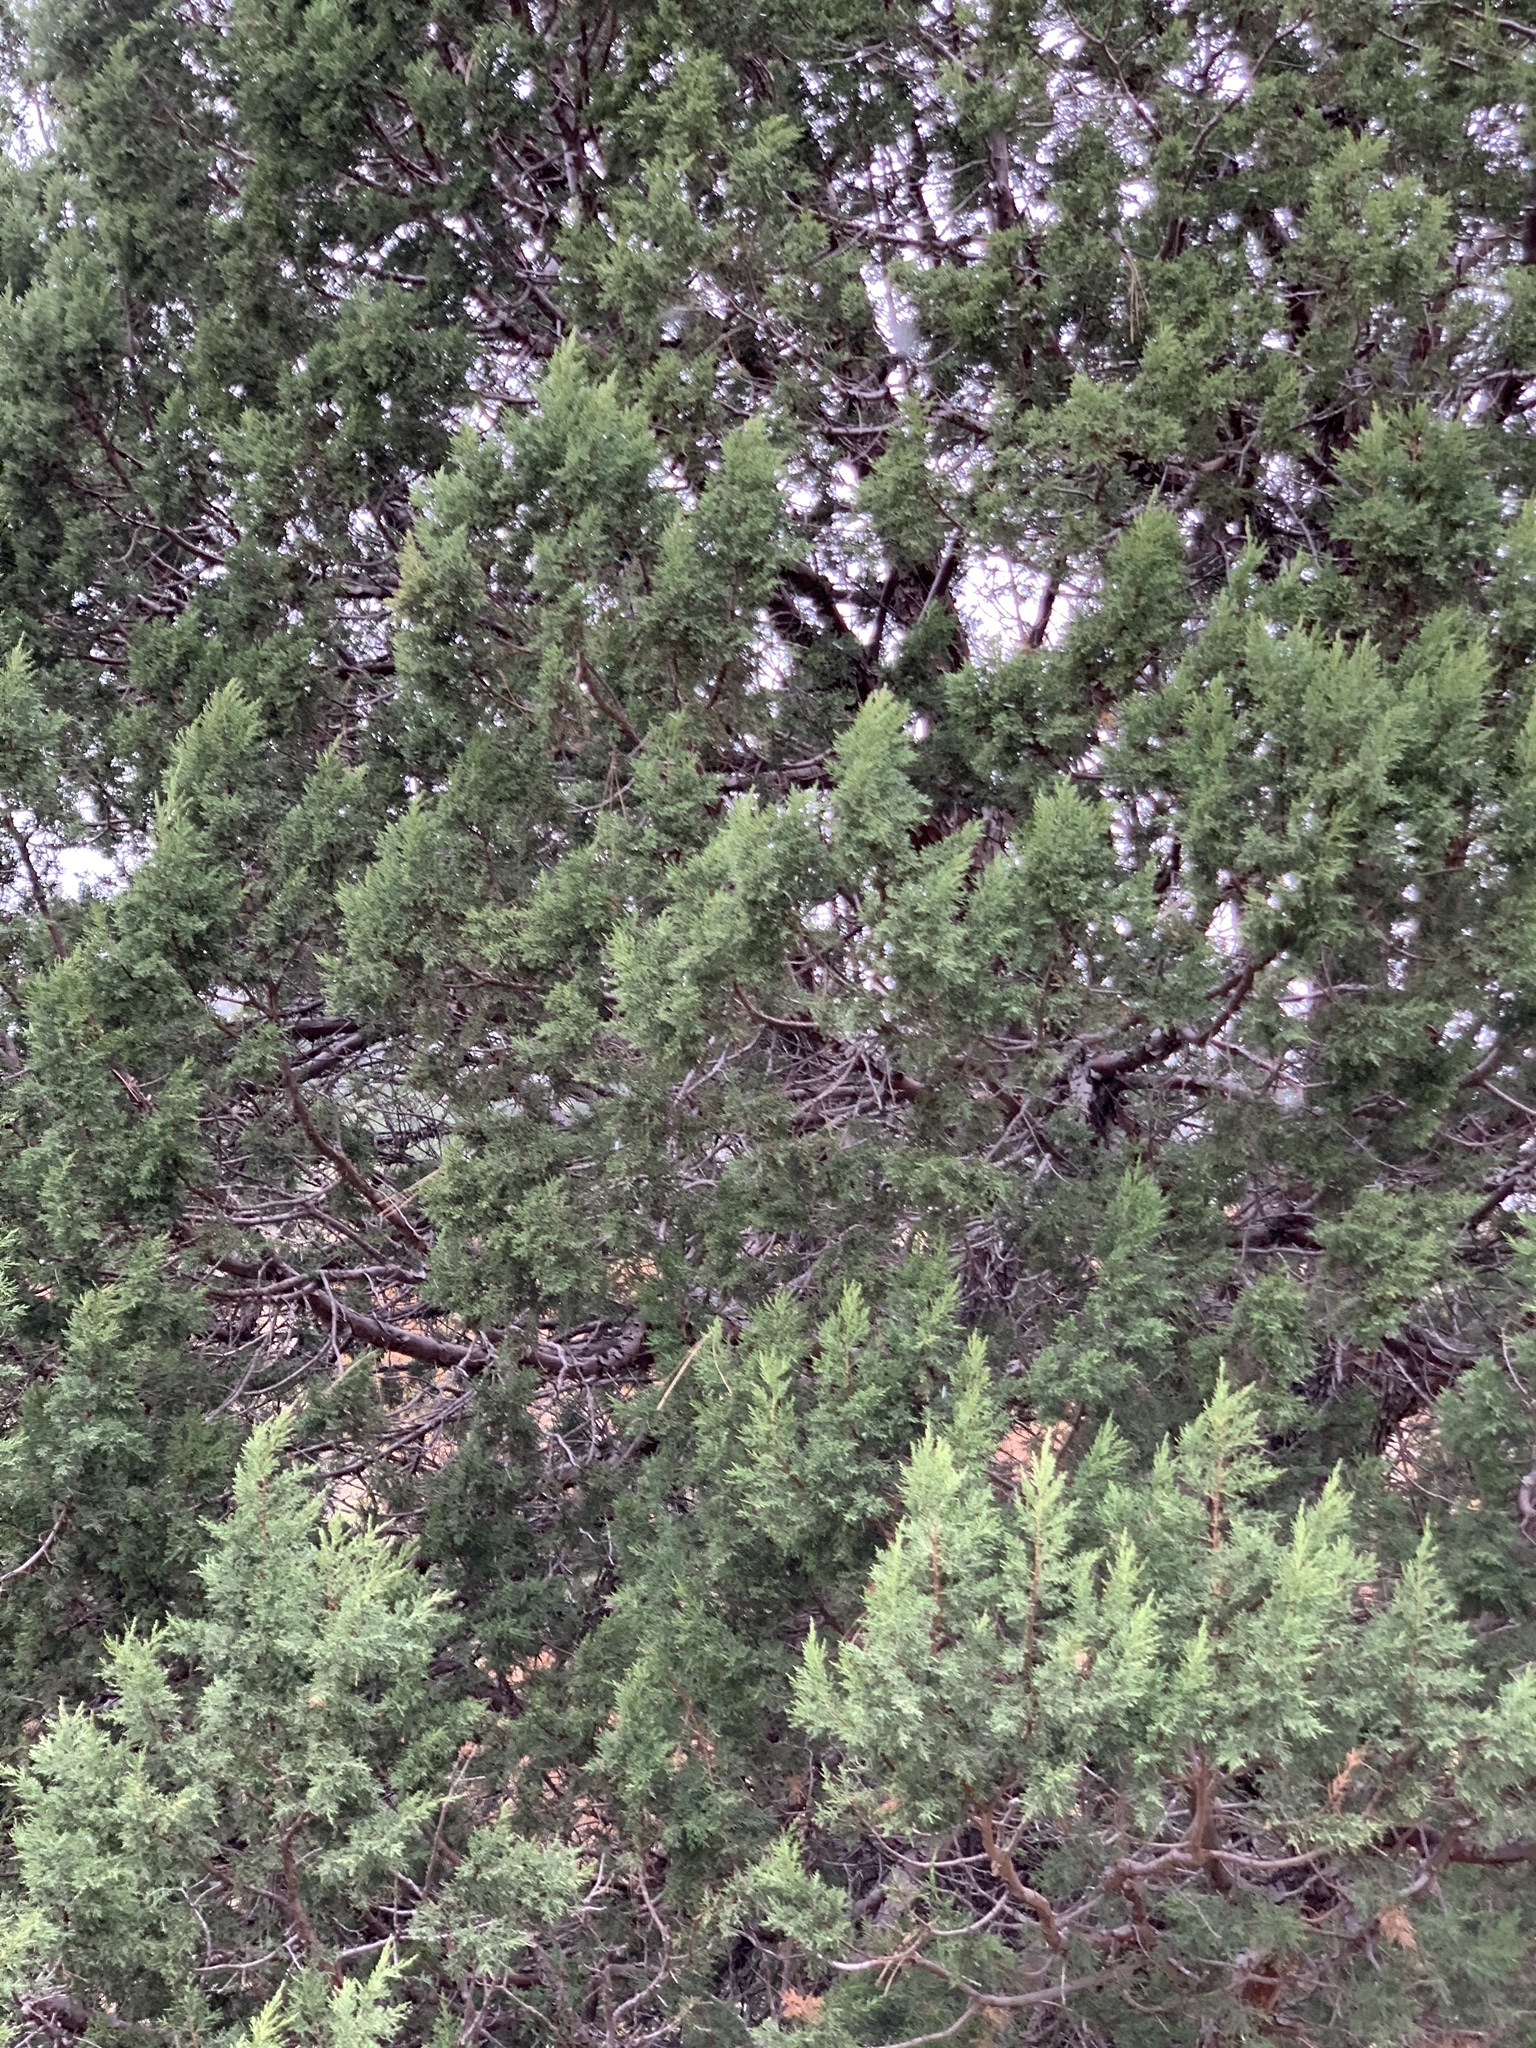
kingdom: Plantae
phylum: Tracheophyta
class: Pinopsida
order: Pinales
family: Cupressaceae
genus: Juniperus
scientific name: Juniperus deppeana
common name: Alligator juniper
